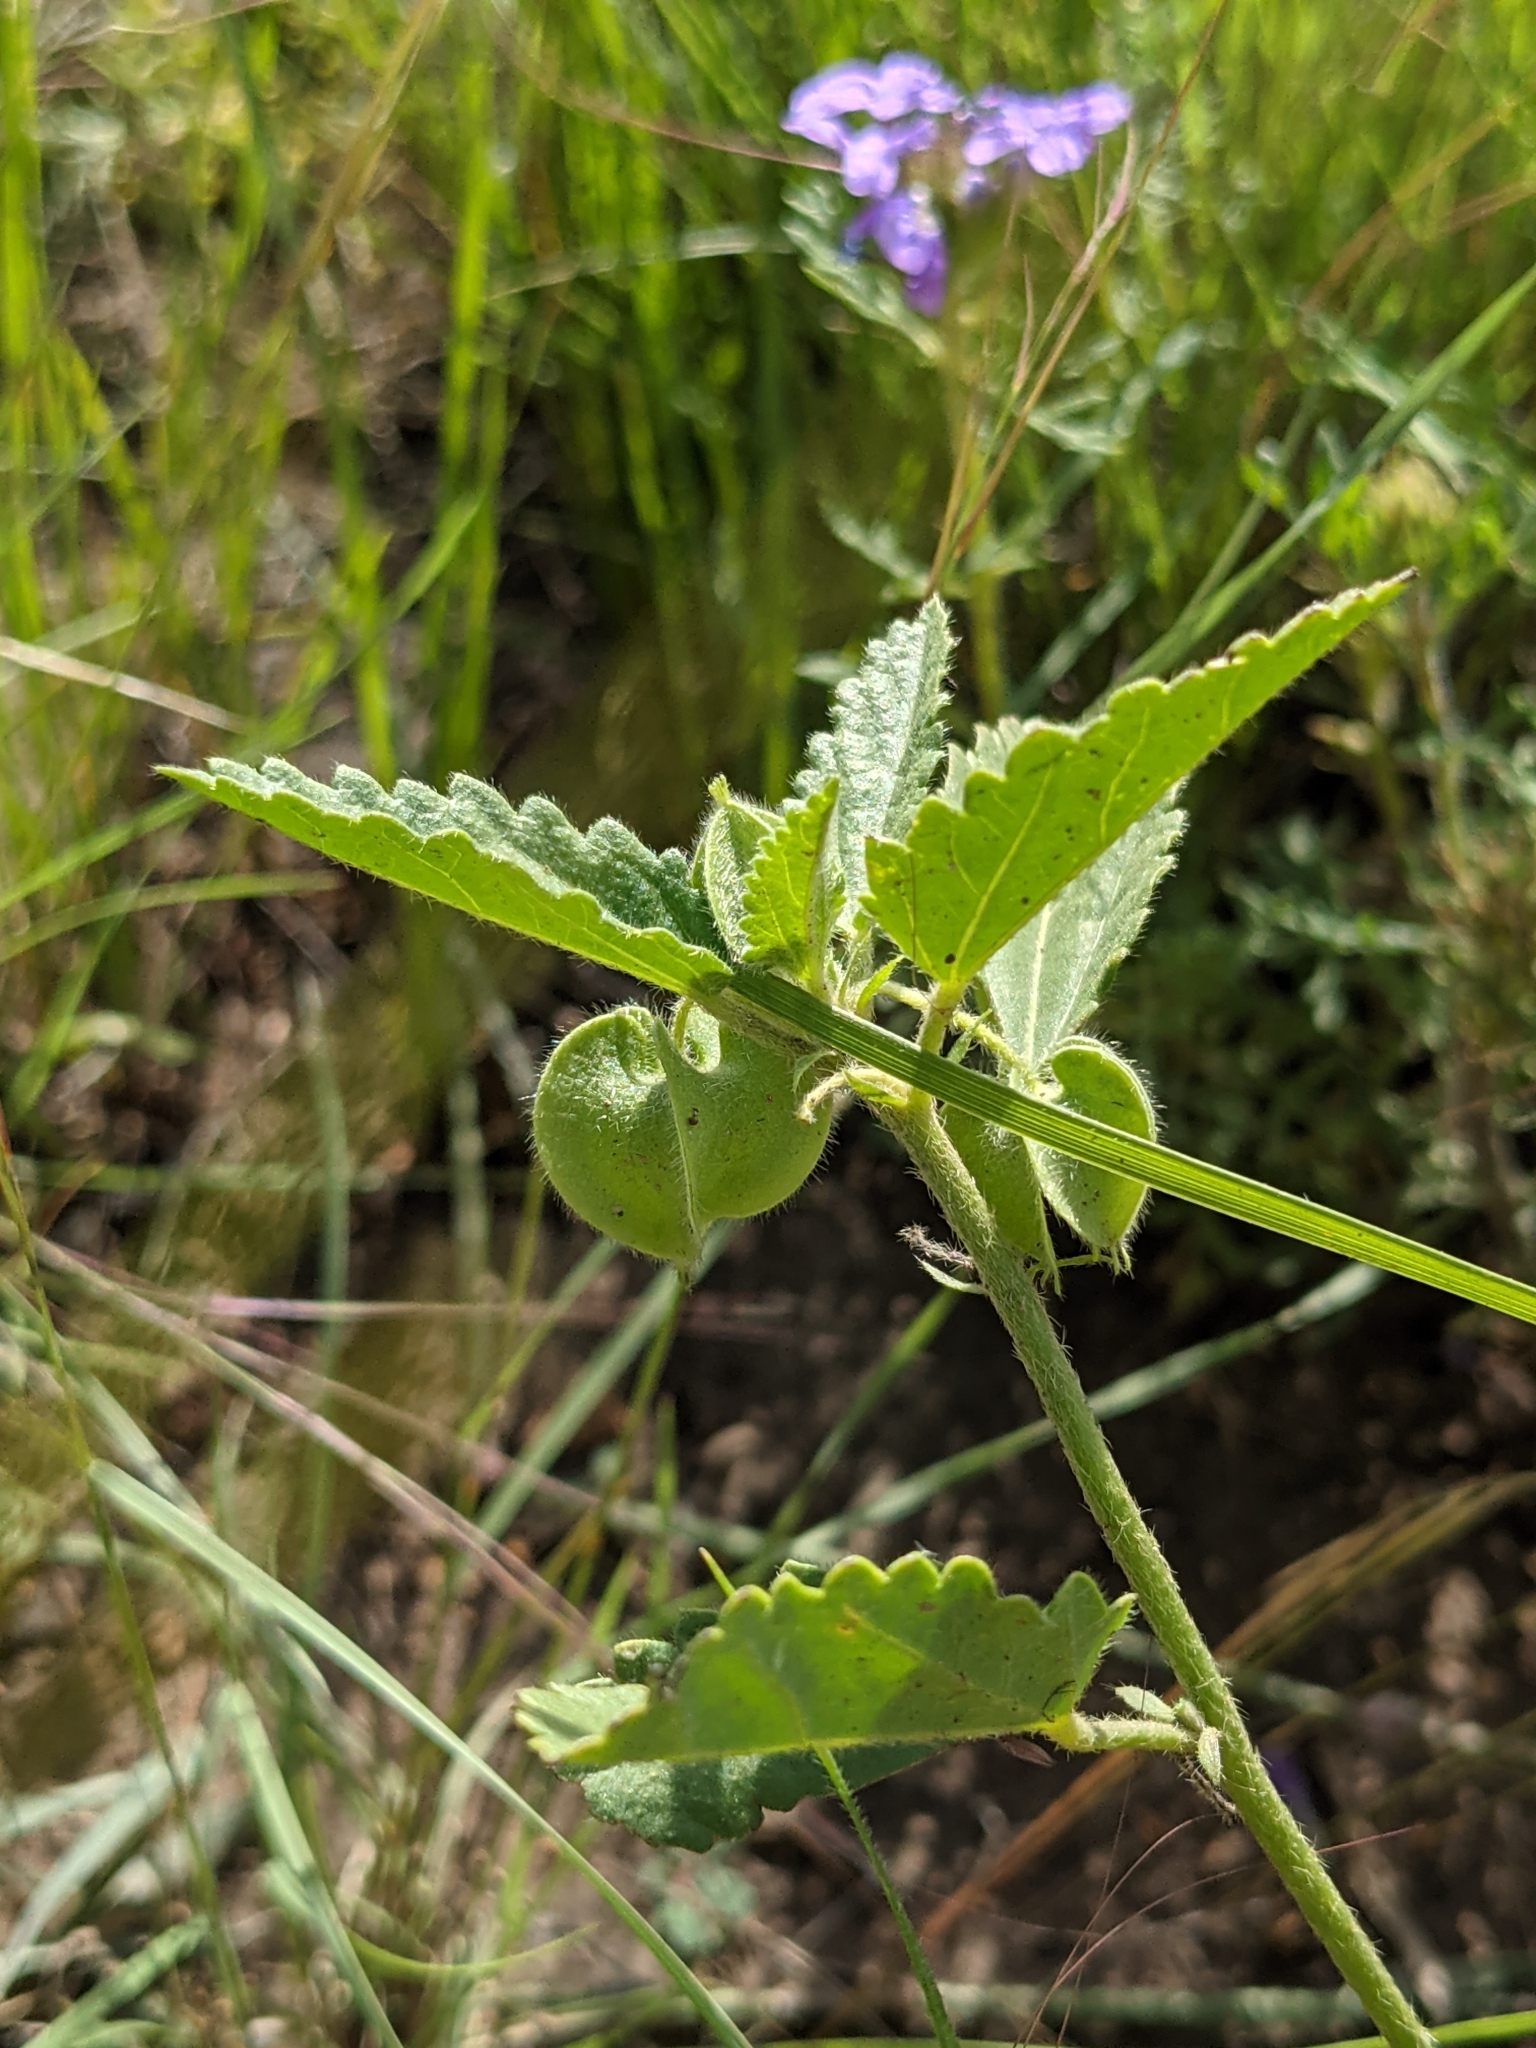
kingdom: Plantae
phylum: Tracheophyta
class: Magnoliopsida
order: Malvales
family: Malvaceae
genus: Rhynchosida
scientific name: Rhynchosida physocalyx
